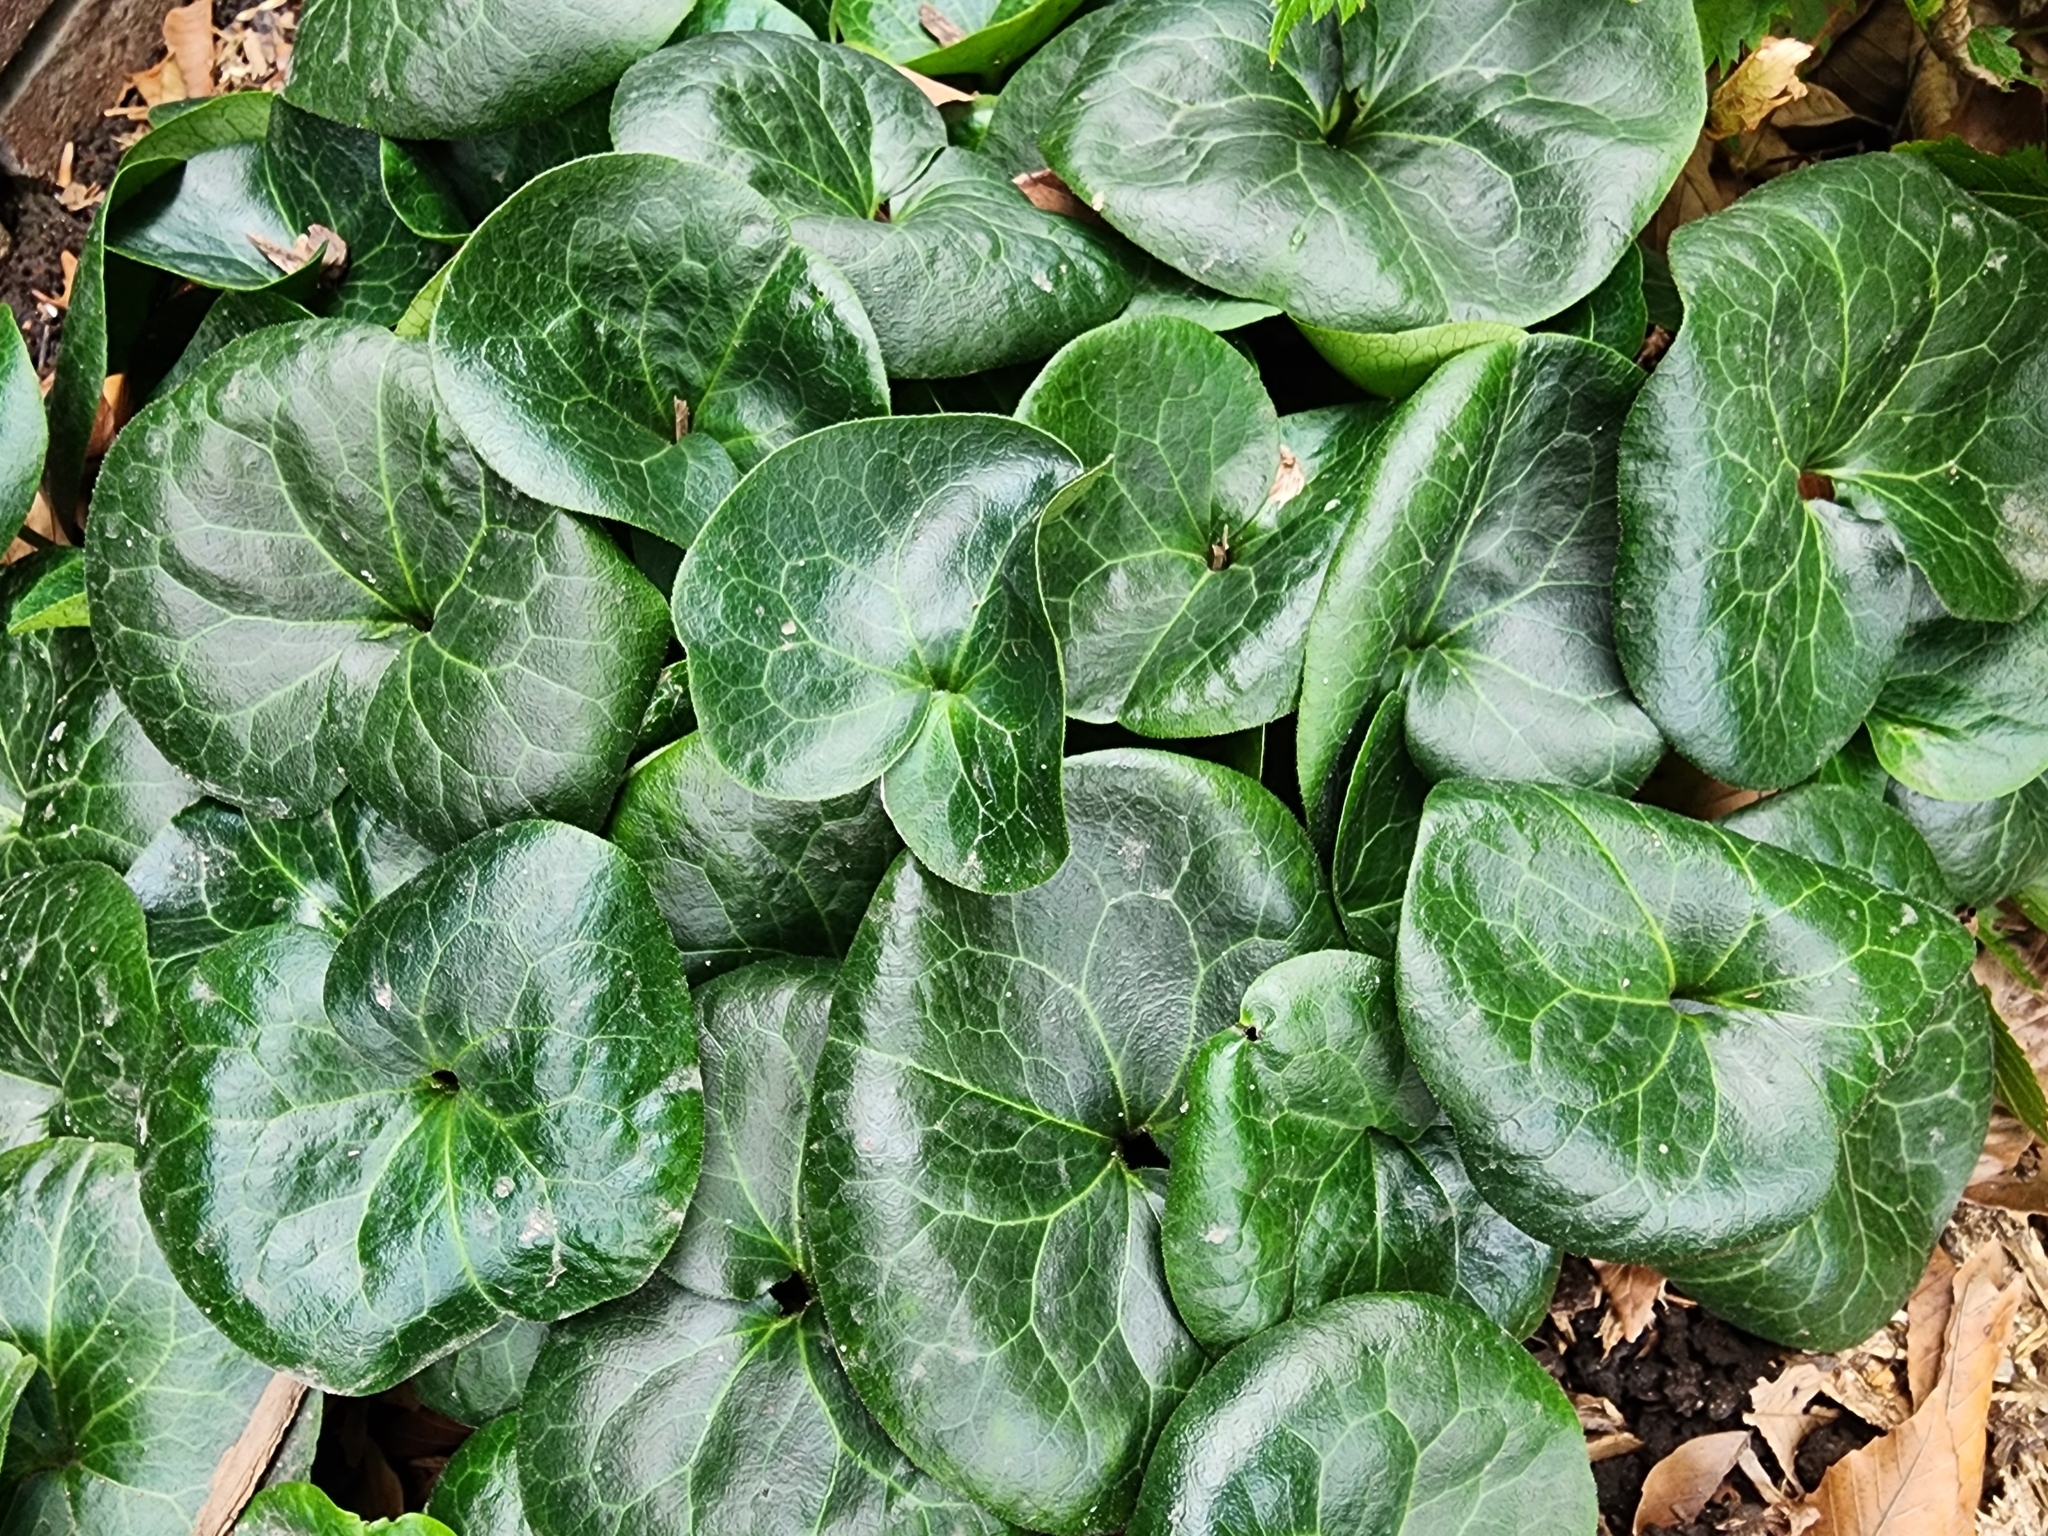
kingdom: Plantae
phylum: Tracheophyta
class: Magnoliopsida
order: Piperales
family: Aristolochiaceae
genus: Asarum
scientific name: Asarum europaeum
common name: Asarabacca
